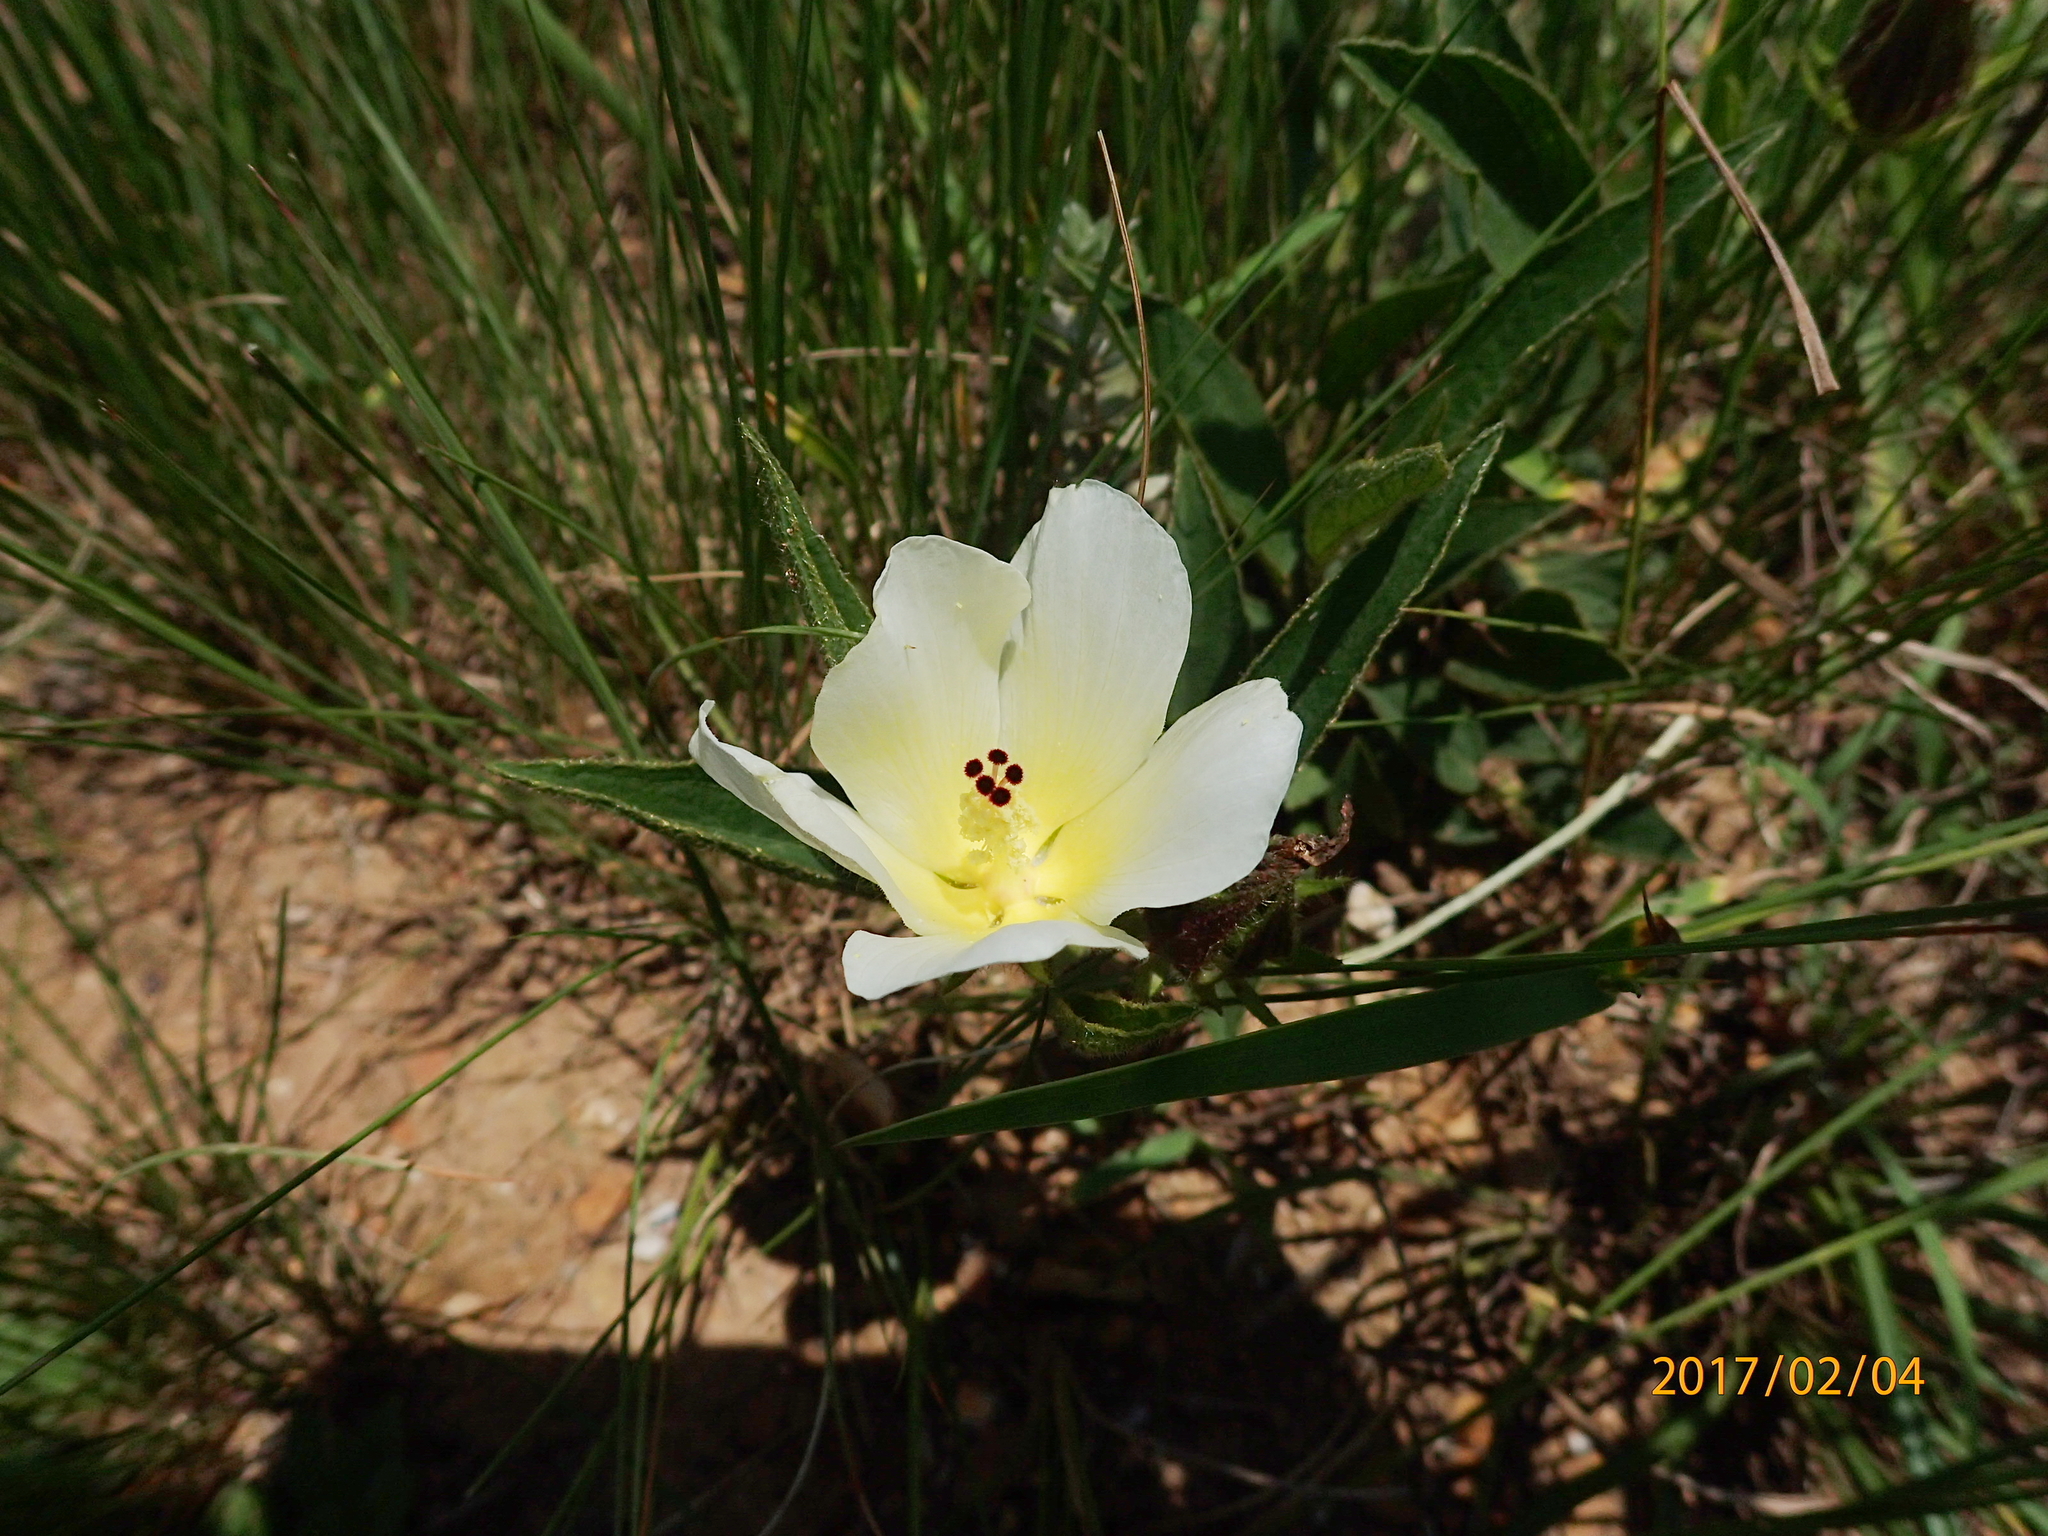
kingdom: Plantae
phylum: Tracheophyta
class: Magnoliopsida
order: Malvales
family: Malvaceae
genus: Hibiscus
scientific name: Hibiscus aethiopicus
